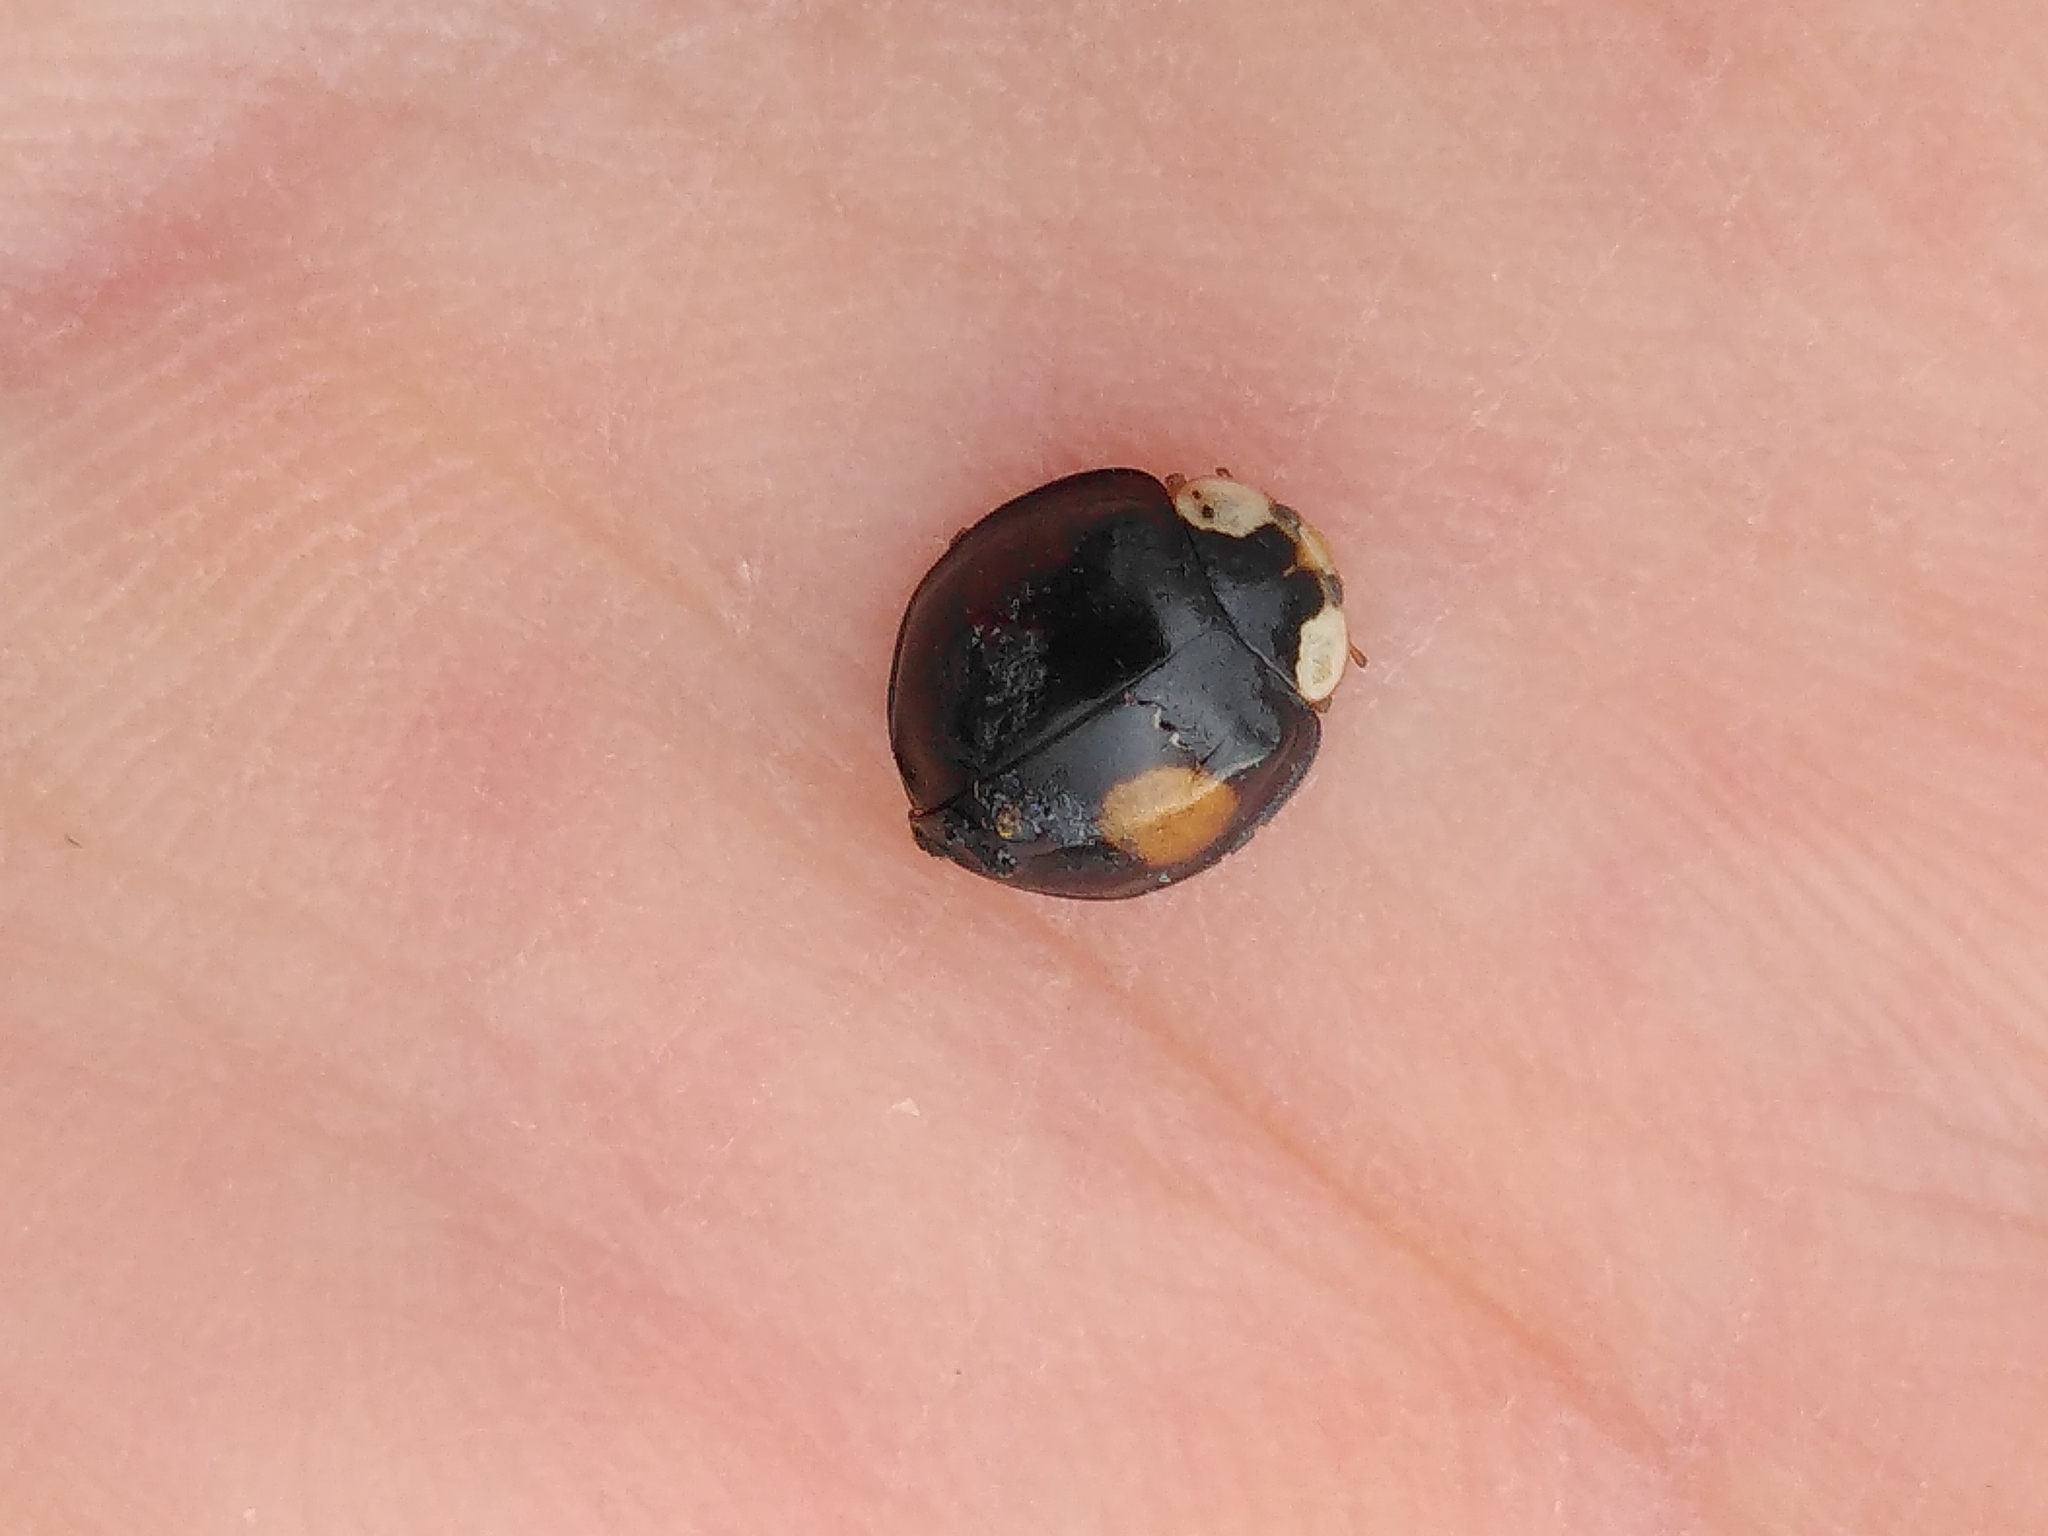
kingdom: Animalia
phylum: Arthropoda
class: Insecta
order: Coleoptera
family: Coccinellidae
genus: Harmonia
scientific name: Harmonia axyridis
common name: Harlequin ladybird
